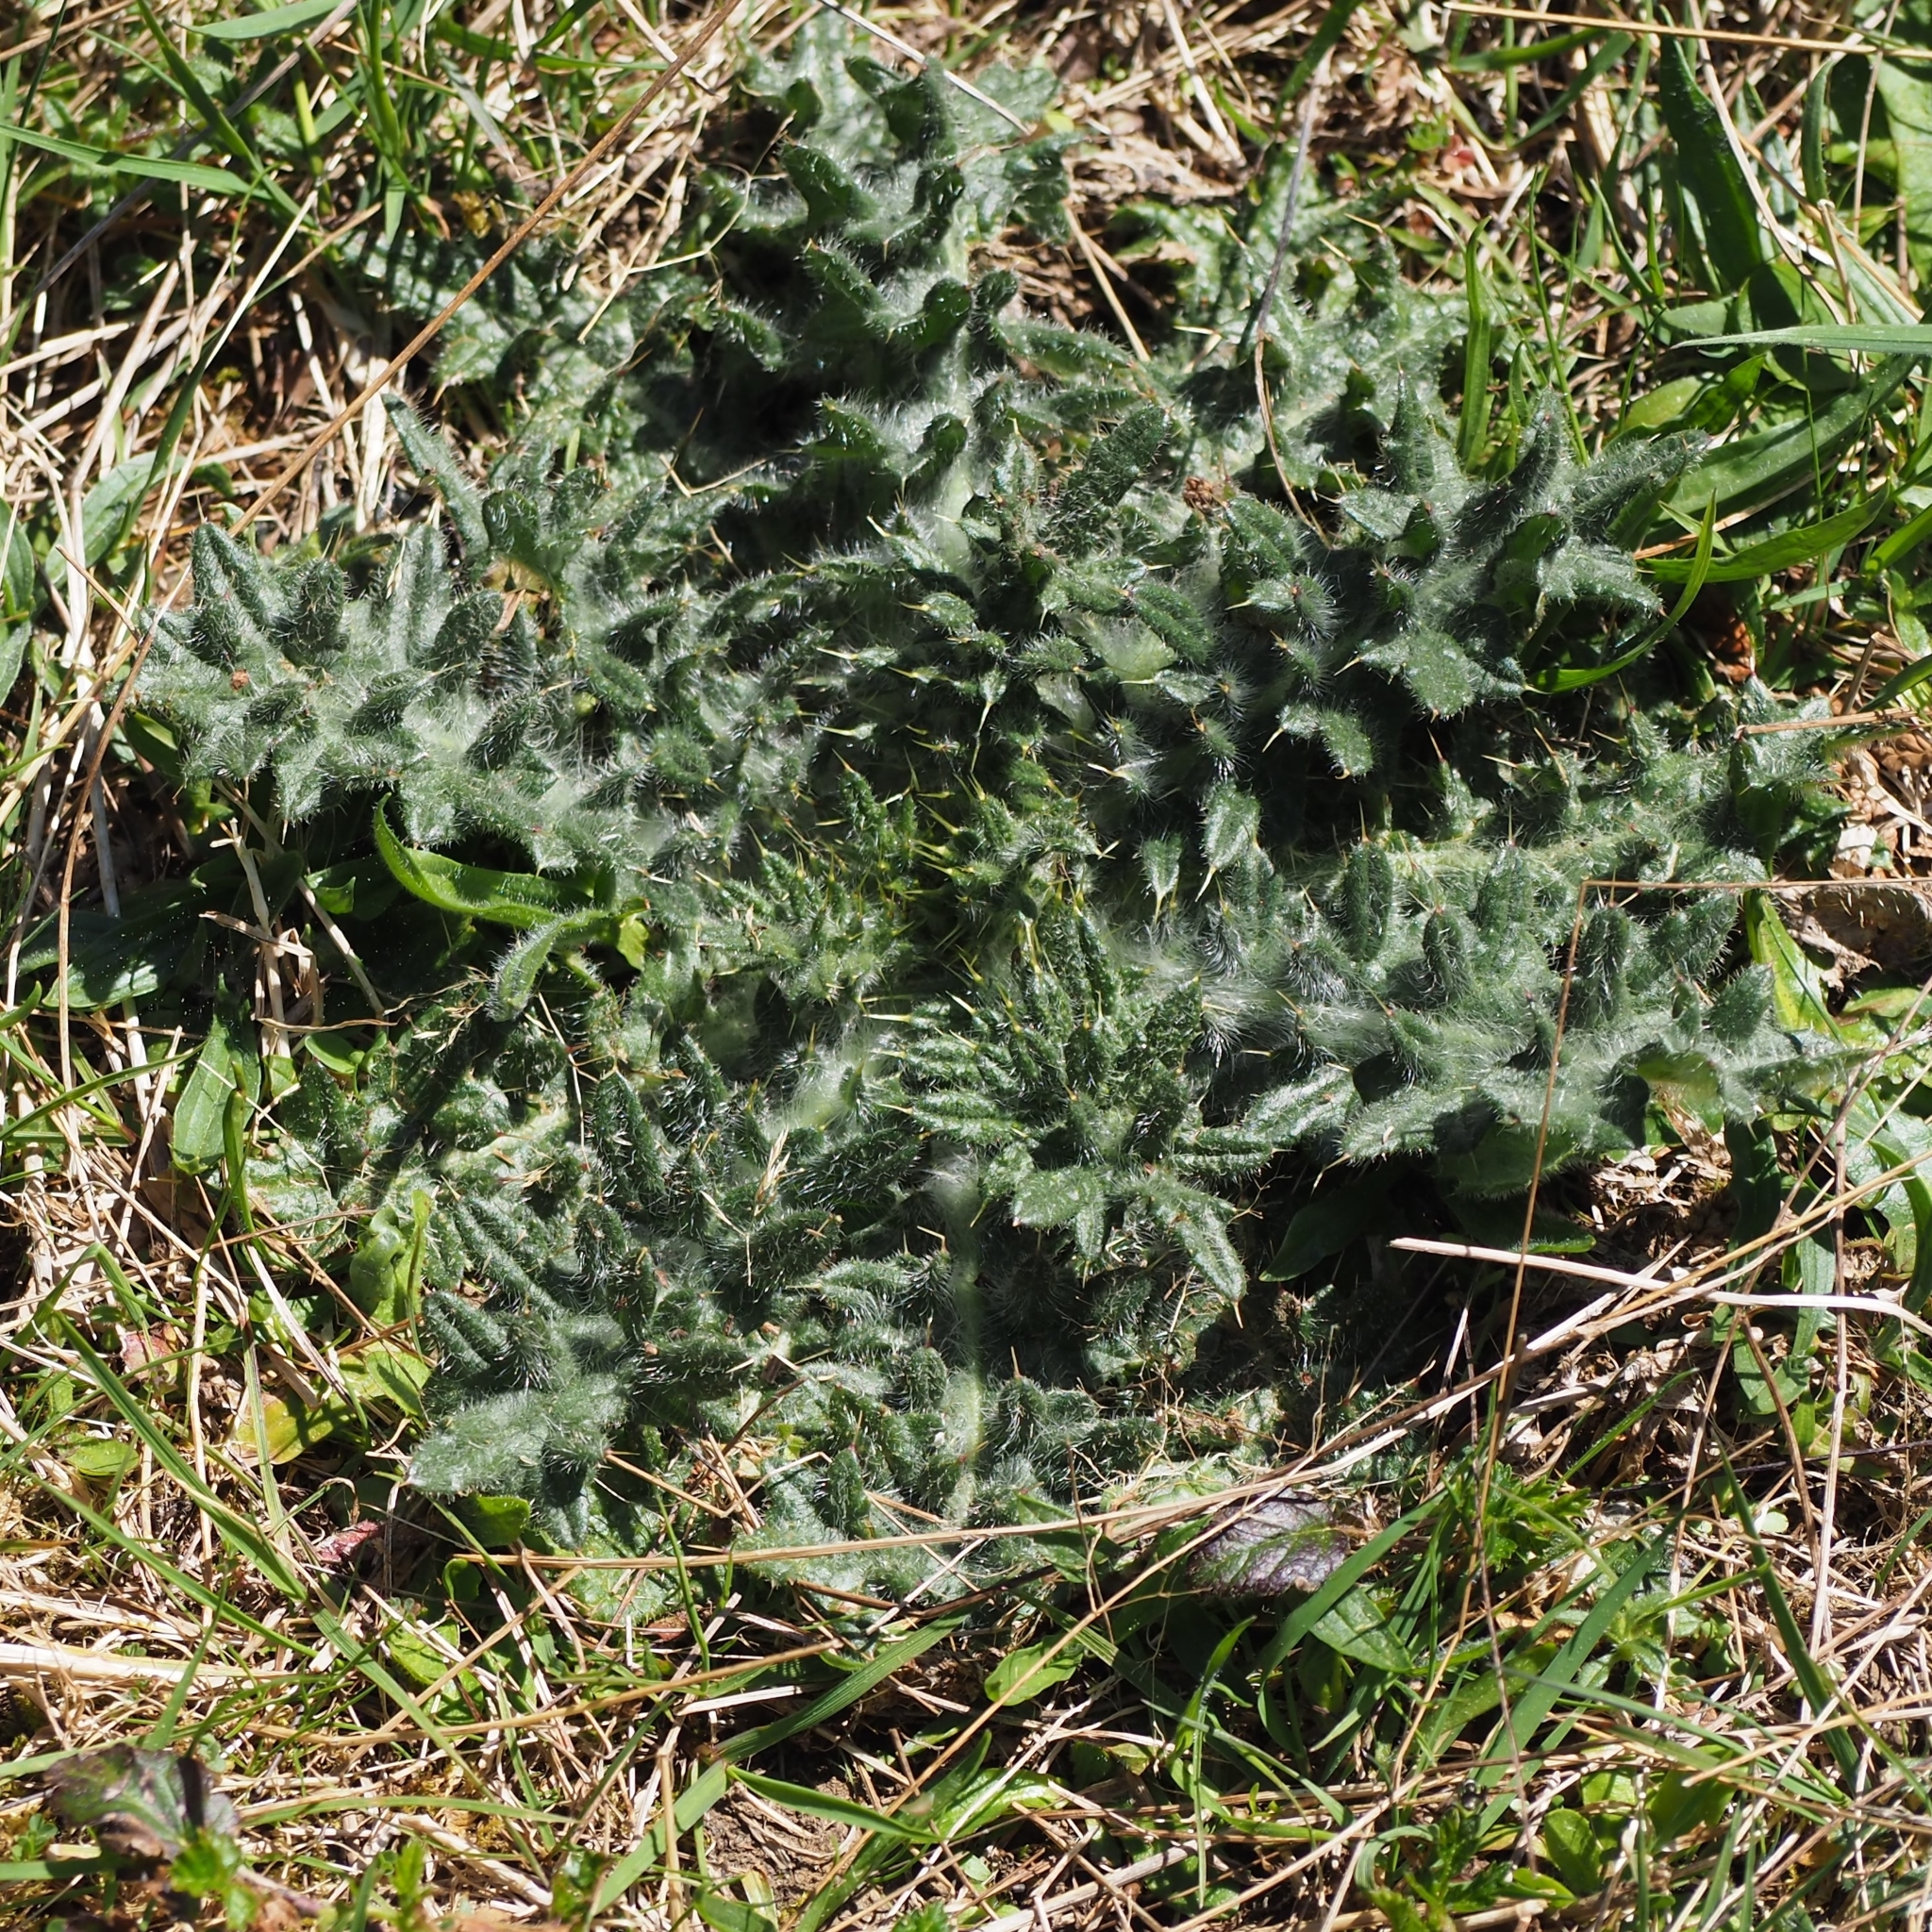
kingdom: Plantae
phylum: Tracheophyta
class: Magnoliopsida
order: Asterales
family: Asteraceae
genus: Cirsium
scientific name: Cirsium vulgare
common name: Bull thistle
